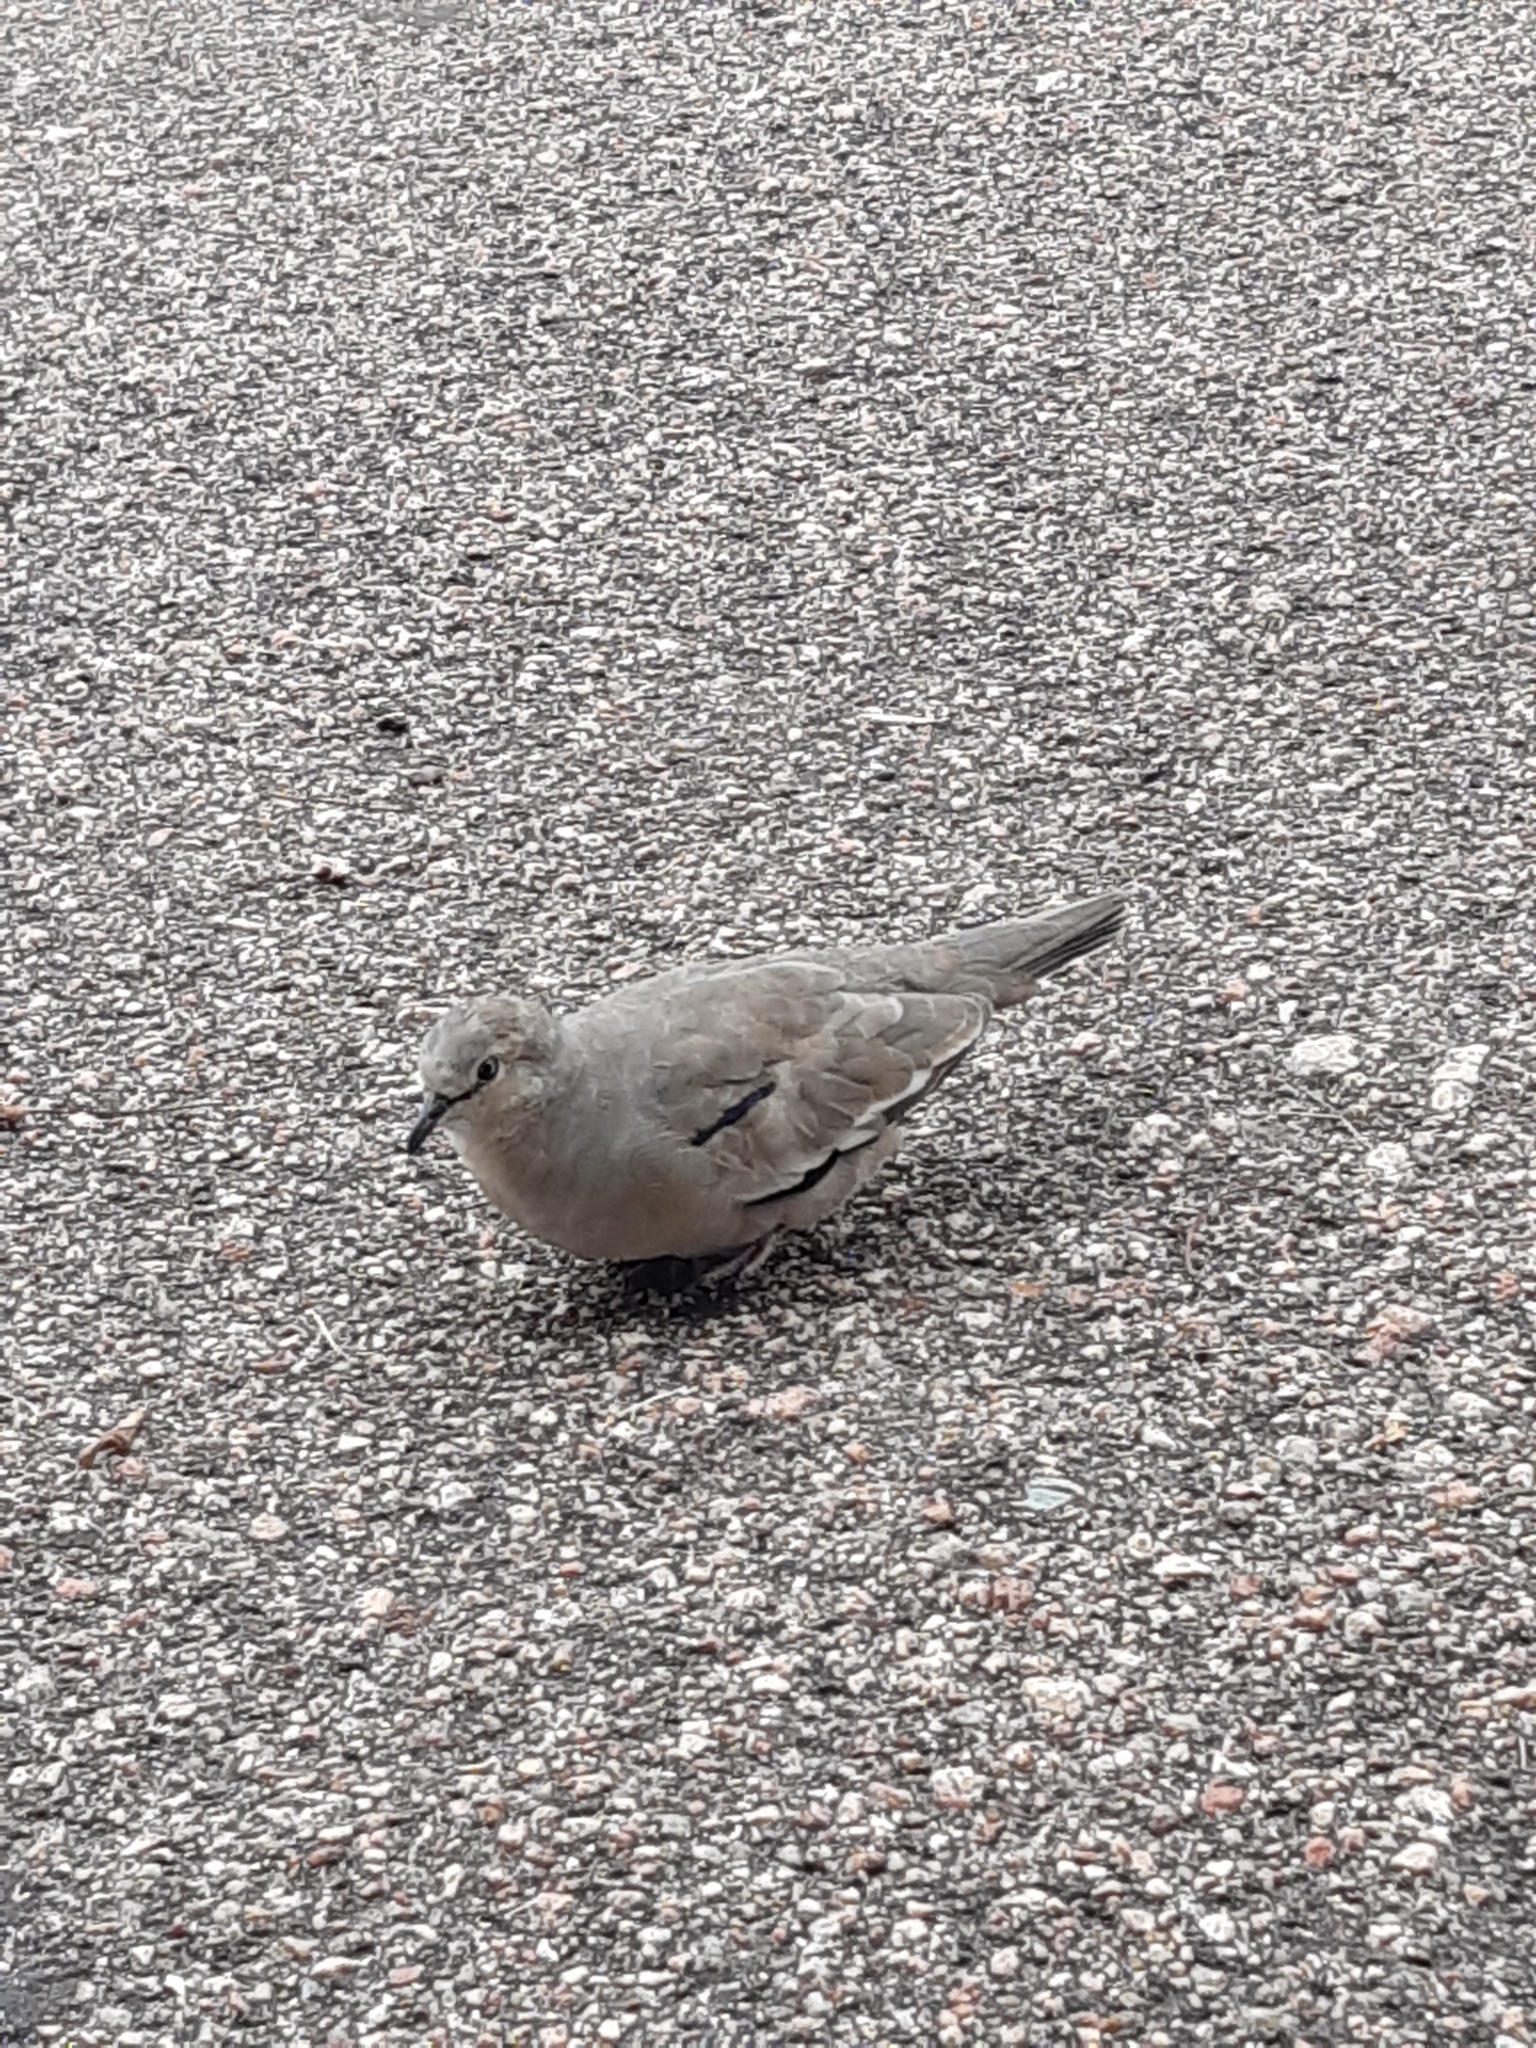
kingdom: Animalia
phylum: Chordata
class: Aves
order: Columbiformes
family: Columbidae
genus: Columbina
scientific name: Columbina picui
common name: Picui ground dove
